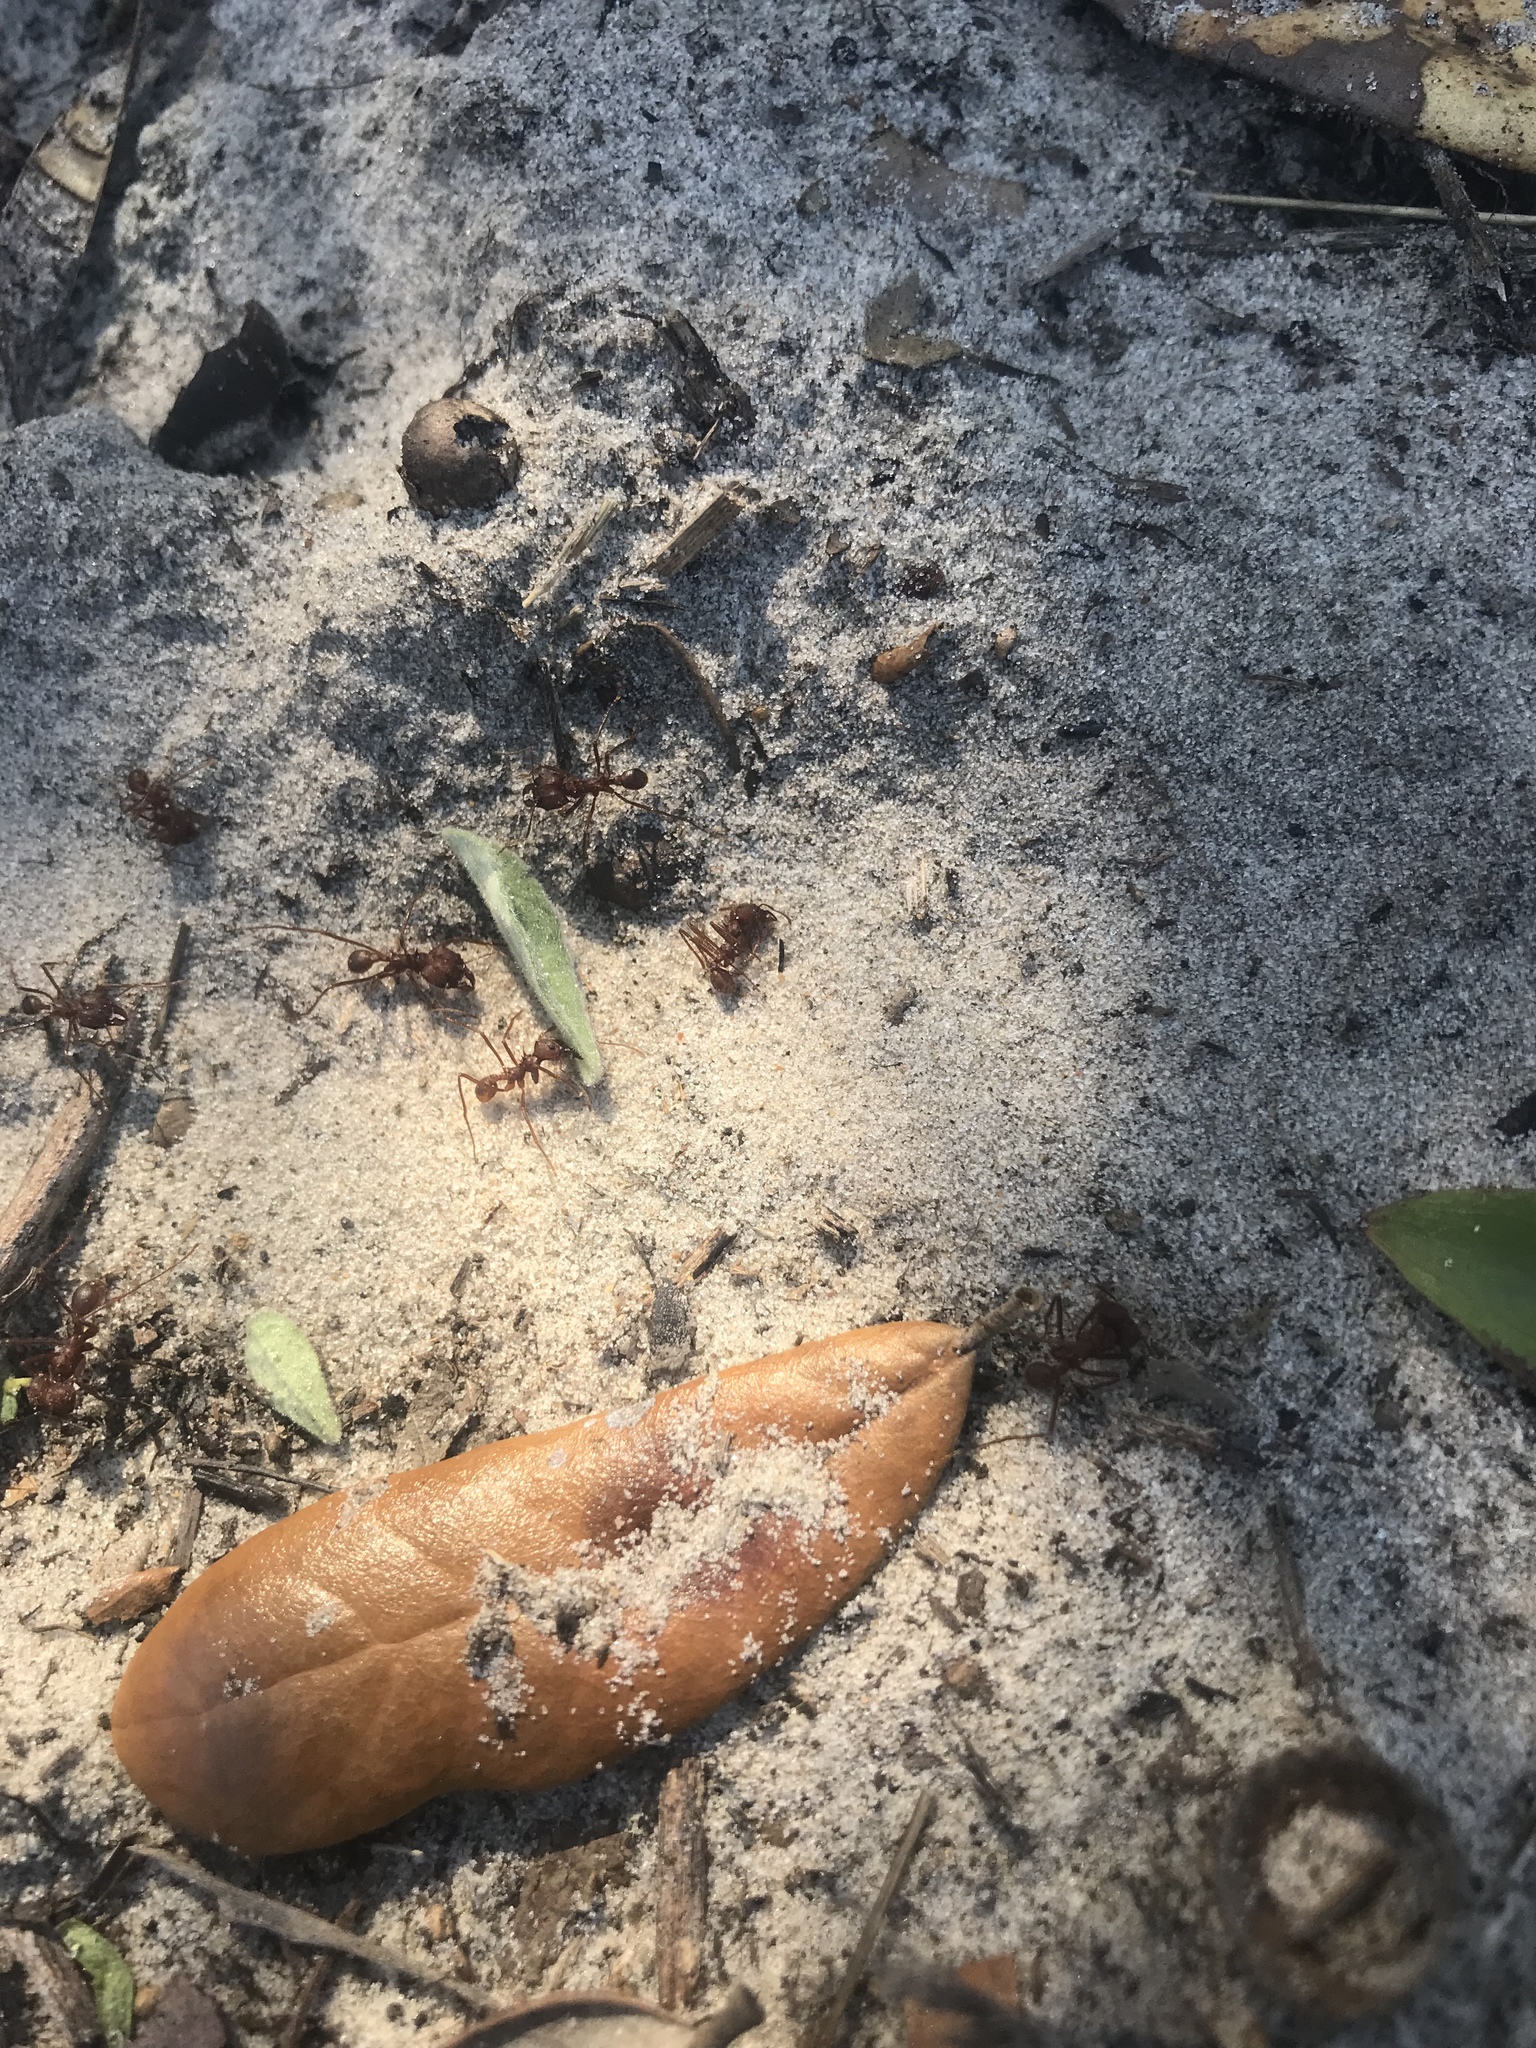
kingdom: Animalia
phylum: Arthropoda
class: Insecta
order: Hymenoptera
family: Formicidae
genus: Atta
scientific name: Atta texana
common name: Texas leafcutting ant
